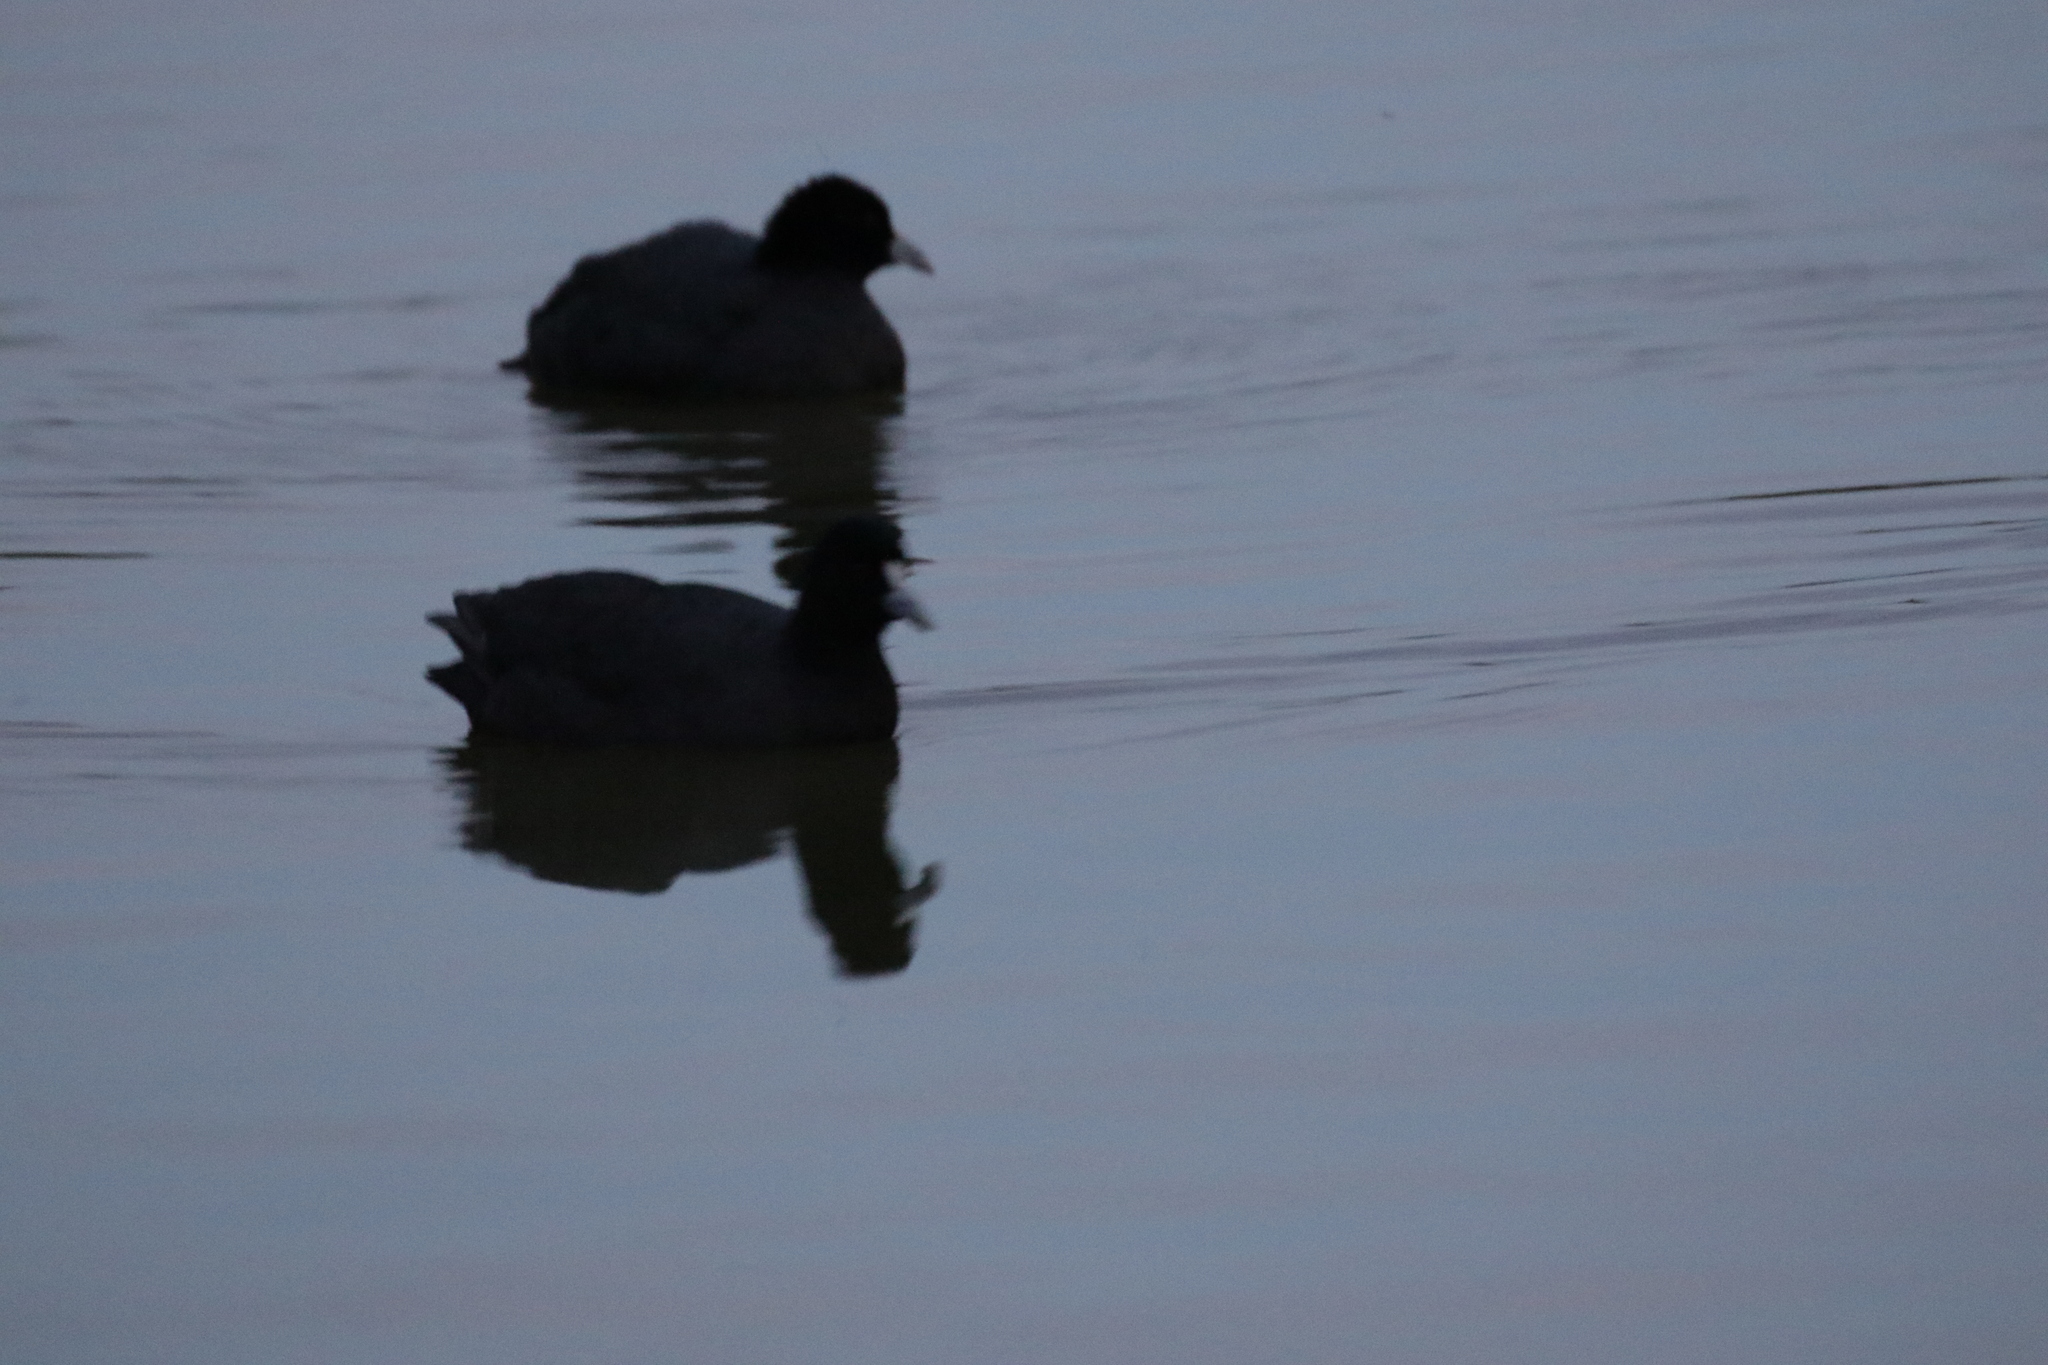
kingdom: Animalia
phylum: Chordata
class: Aves
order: Gruiformes
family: Rallidae
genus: Fulica
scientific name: Fulica atra
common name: Eurasian coot
